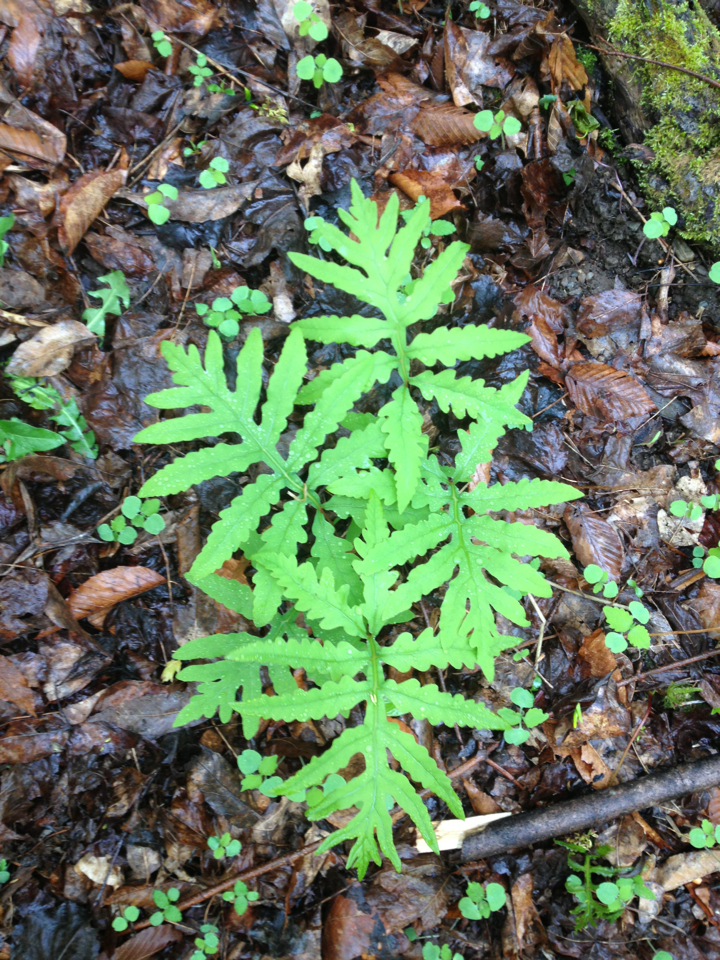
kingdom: Plantae
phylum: Tracheophyta
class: Polypodiopsida
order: Polypodiales
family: Onocleaceae
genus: Onoclea
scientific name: Onoclea sensibilis
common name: Sensitive fern
